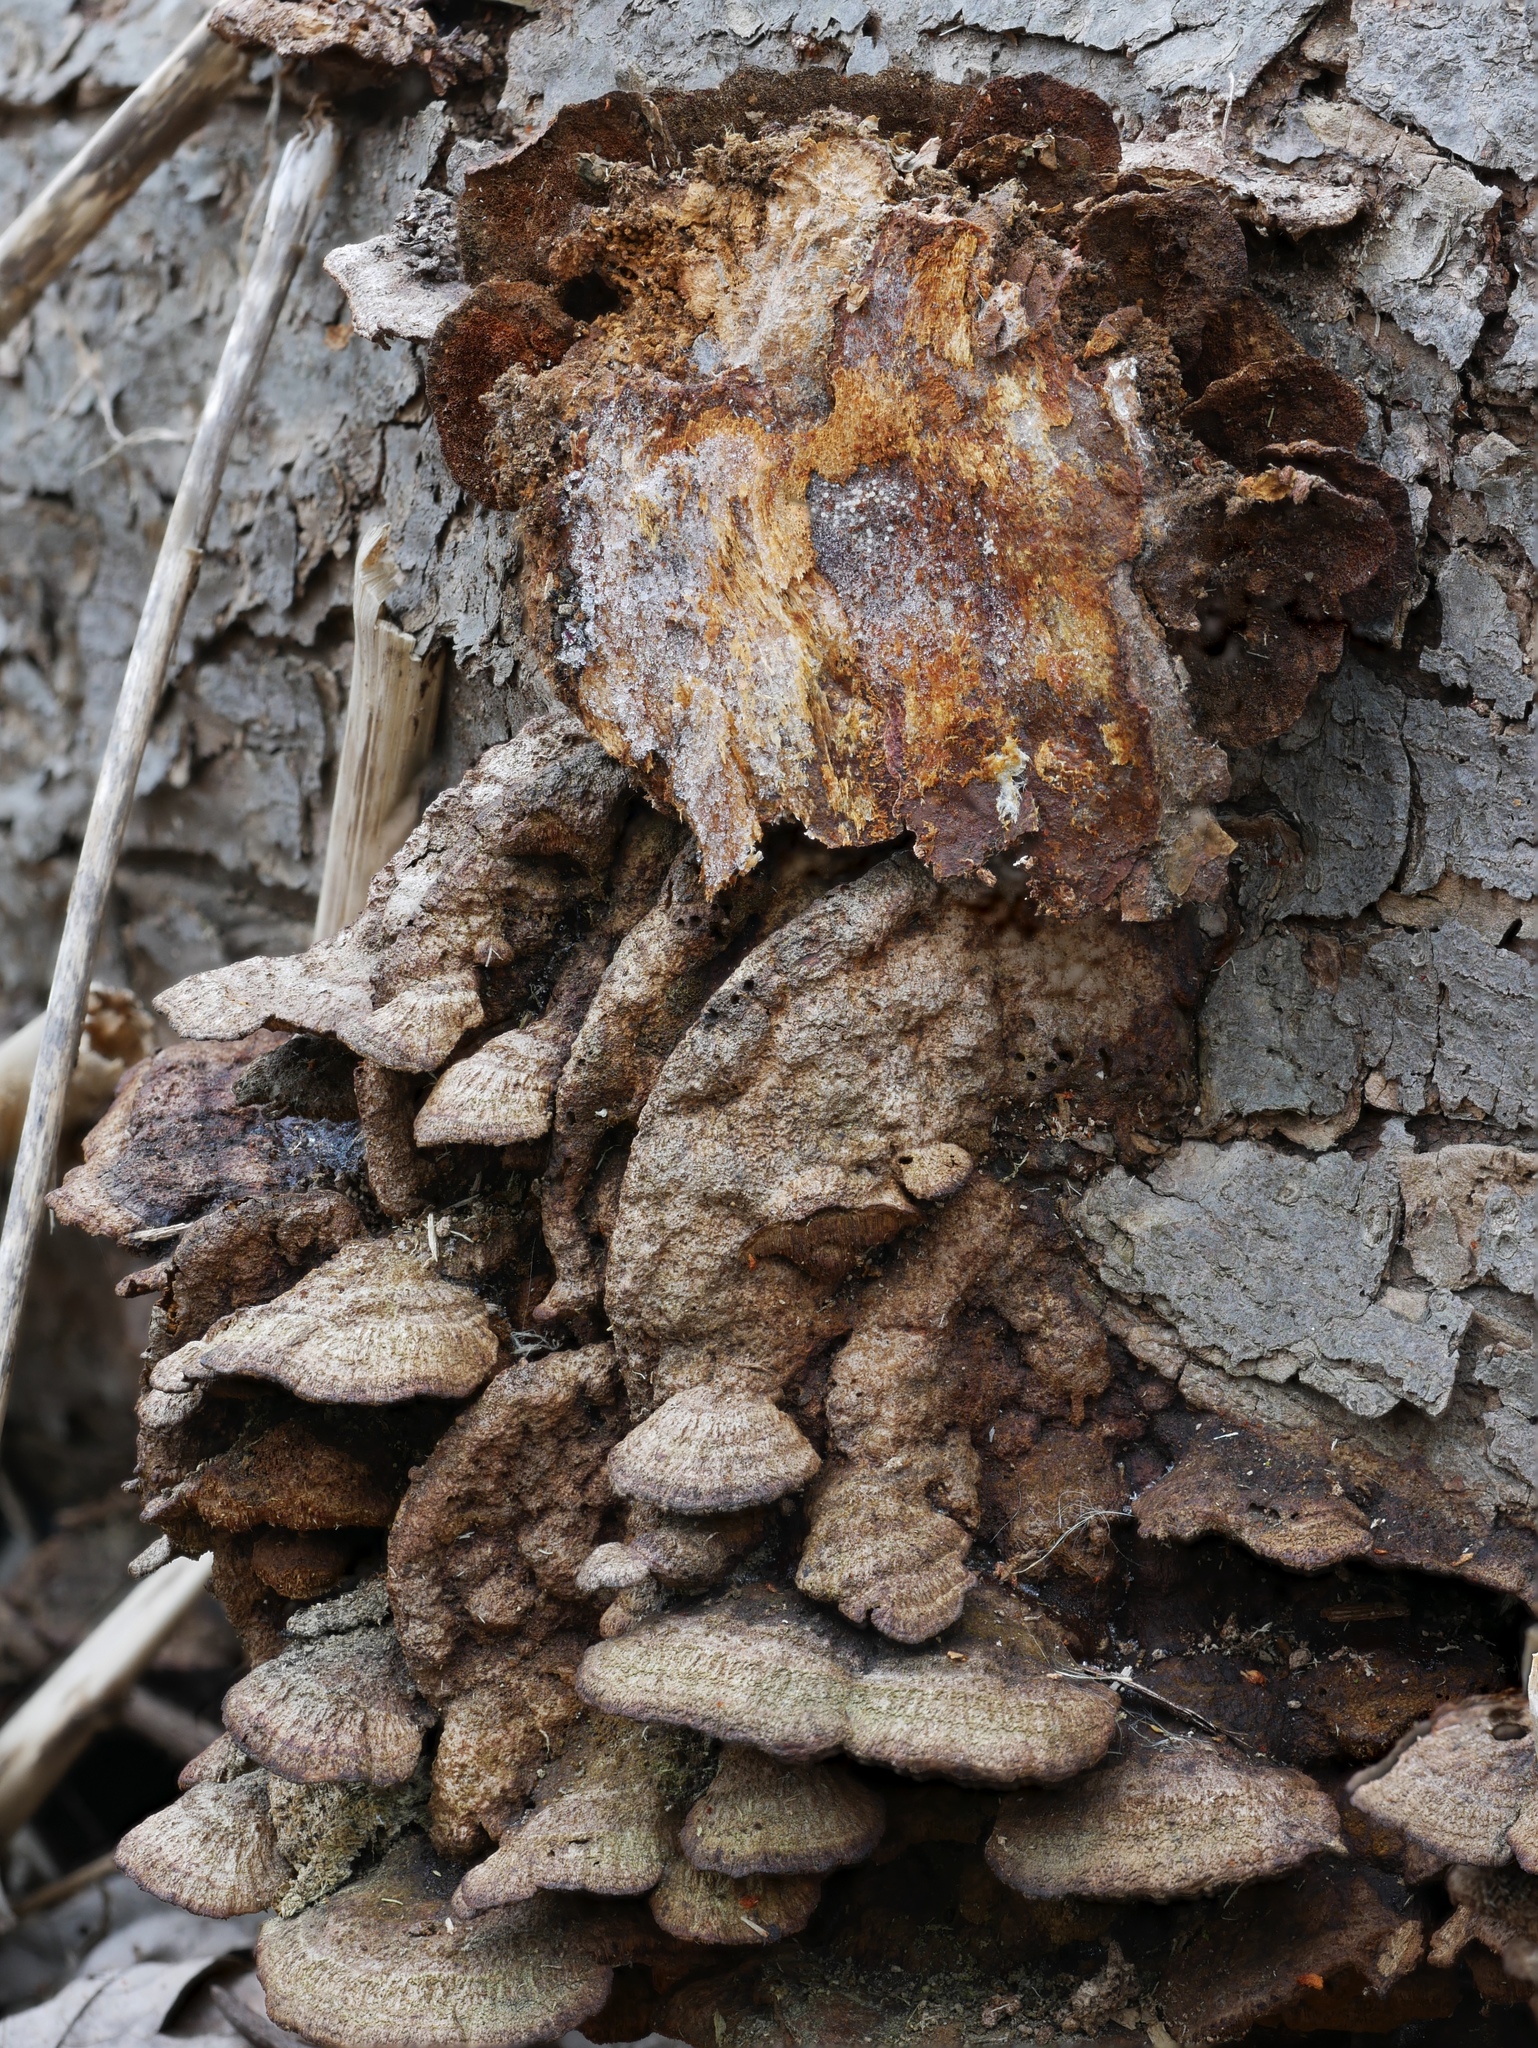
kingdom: Fungi
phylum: Basidiomycota
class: Agaricomycetes
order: Hymenochaetales
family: Hymenochaetaceae
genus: Phellinus
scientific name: Phellinus gilvus
